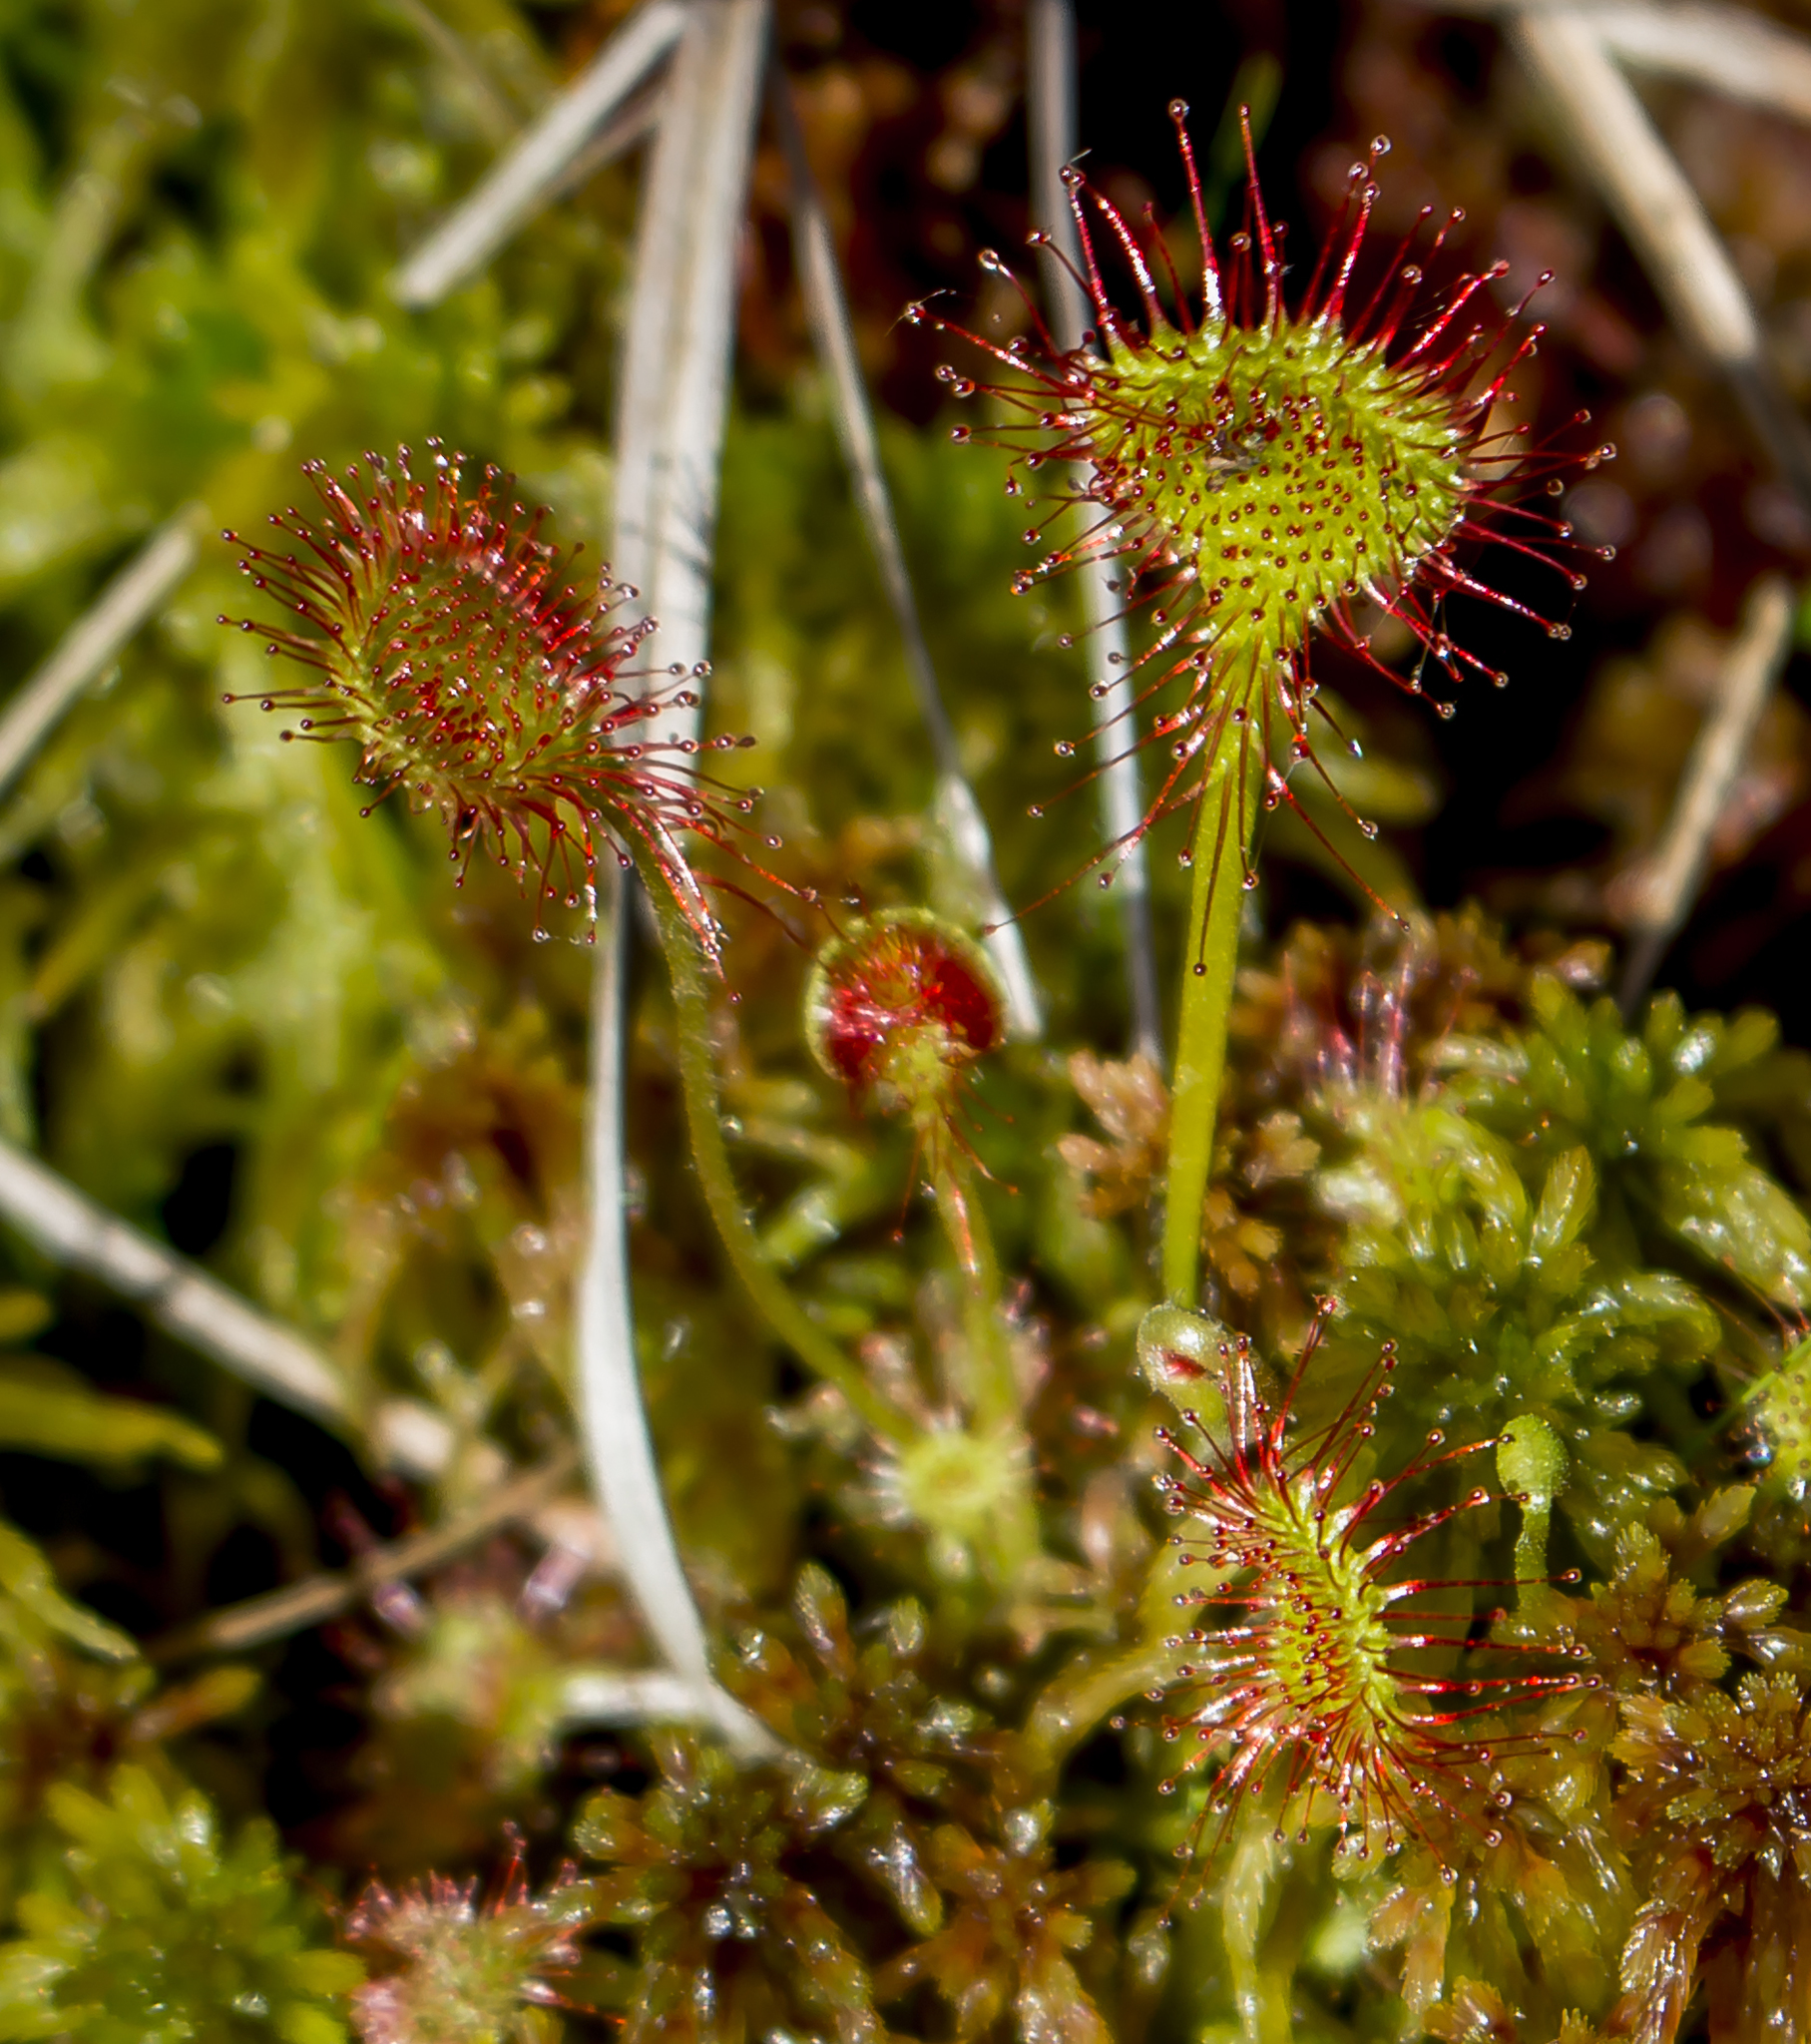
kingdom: Plantae
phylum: Tracheophyta
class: Magnoliopsida
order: Caryophyllales
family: Droseraceae
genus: Drosera
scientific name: Drosera rotundifolia
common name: Round-leaved sundew
